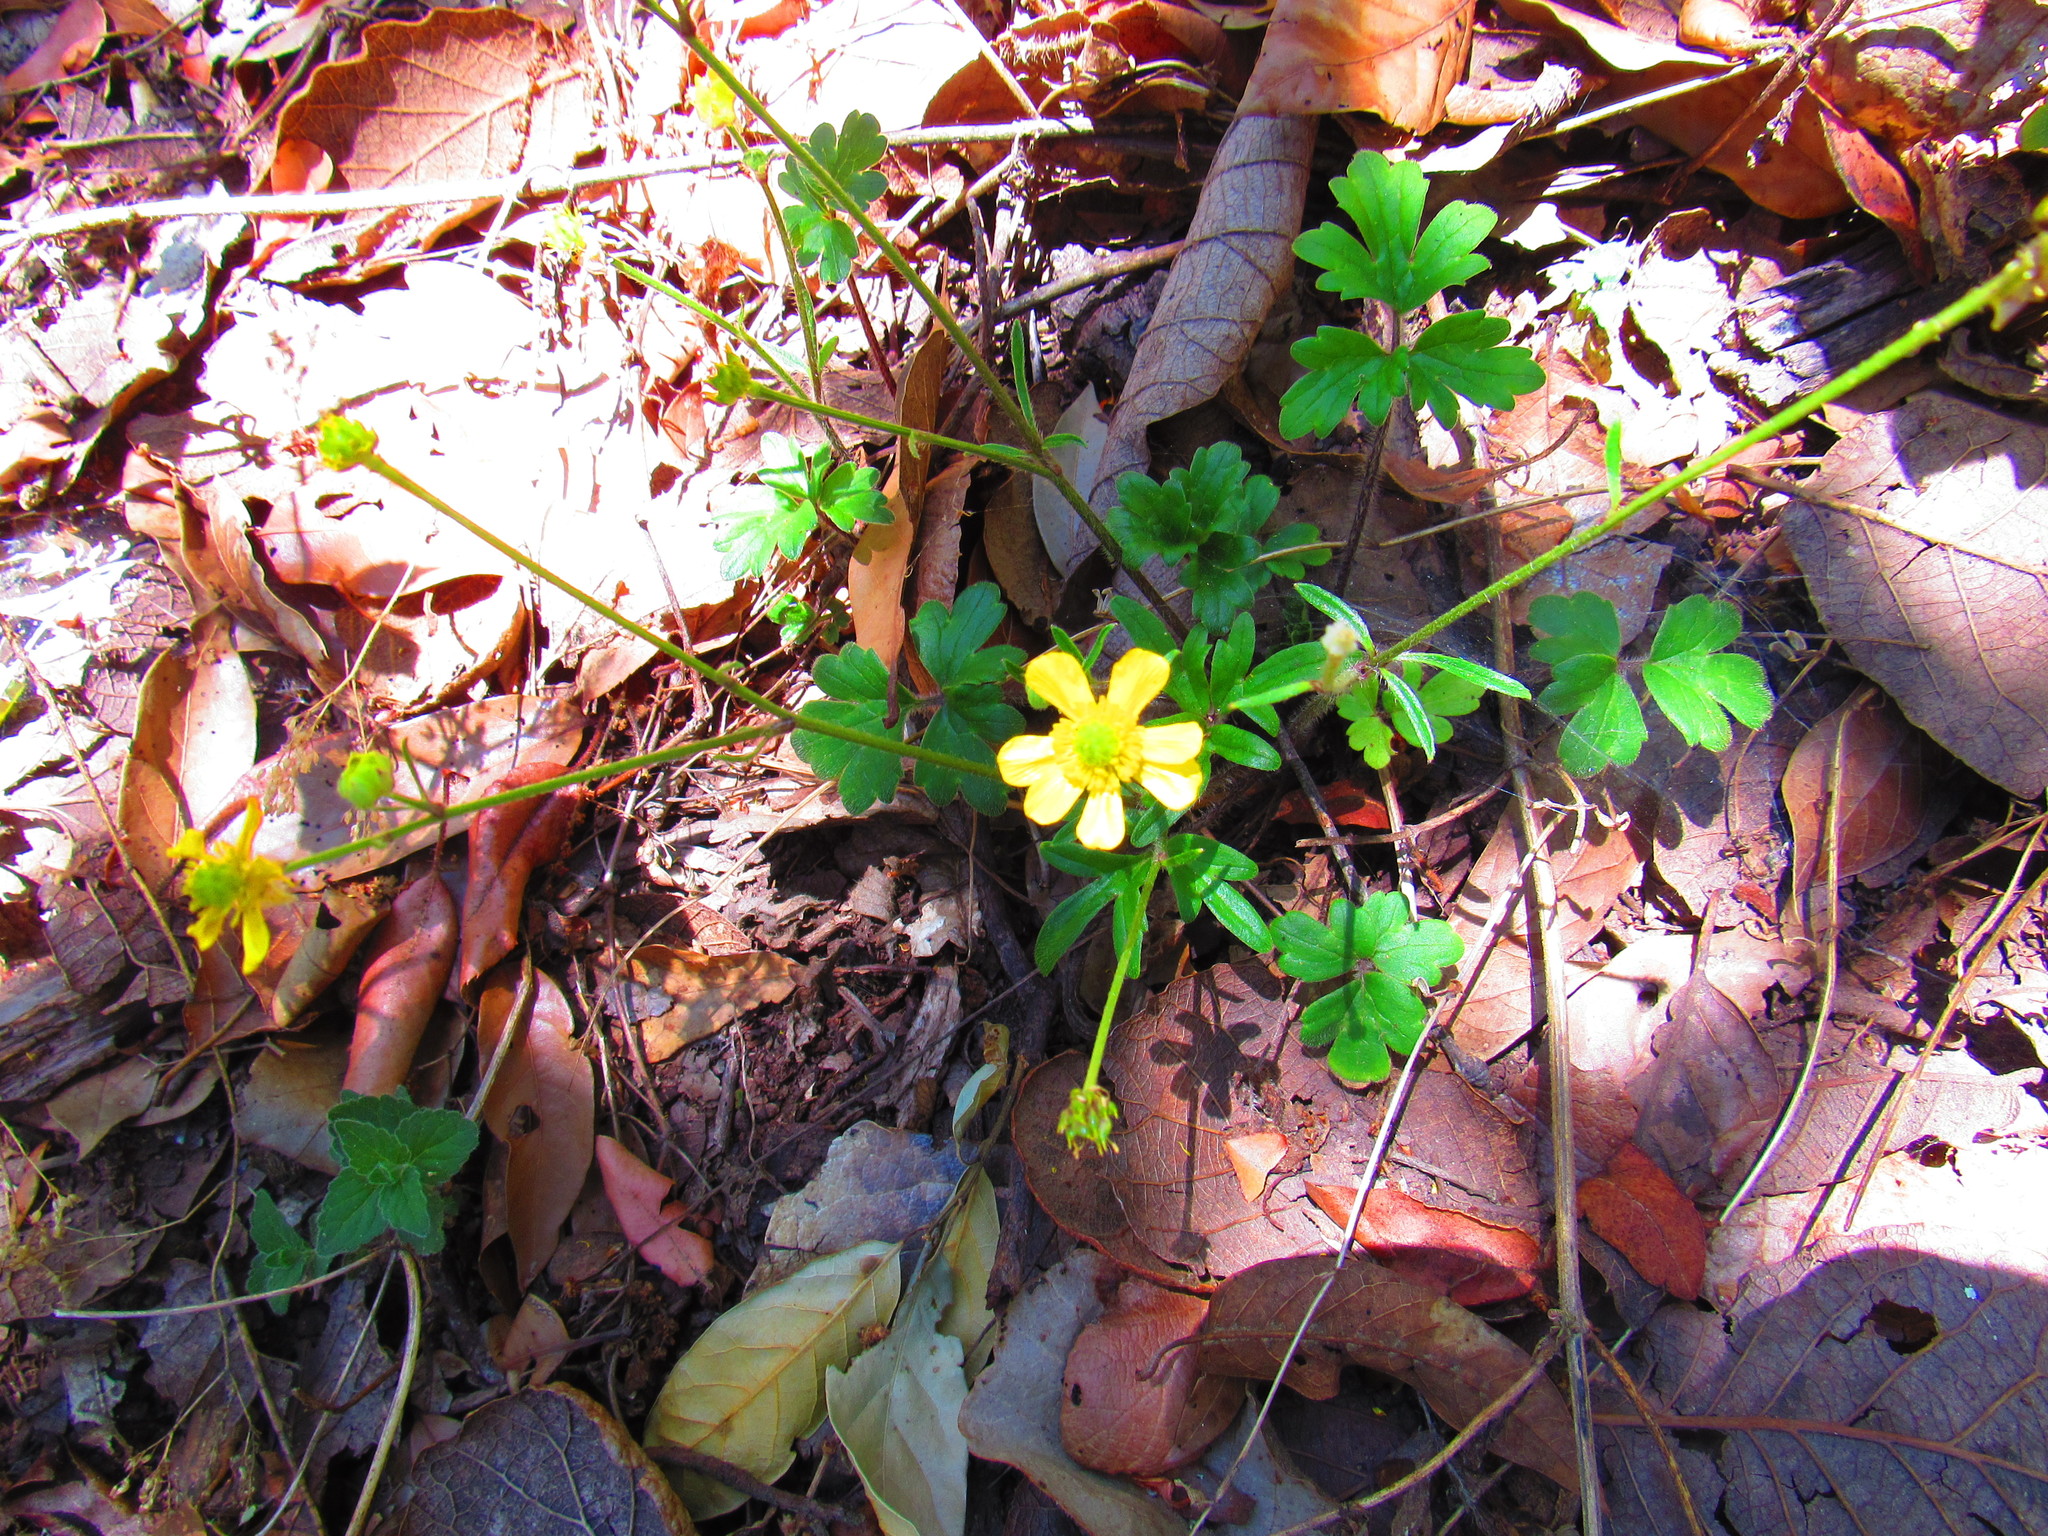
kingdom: Plantae
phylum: Tracheophyta
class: Magnoliopsida
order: Ranunculales
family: Ranunculaceae
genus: Ranunculus
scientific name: Ranunculus petiolaris
